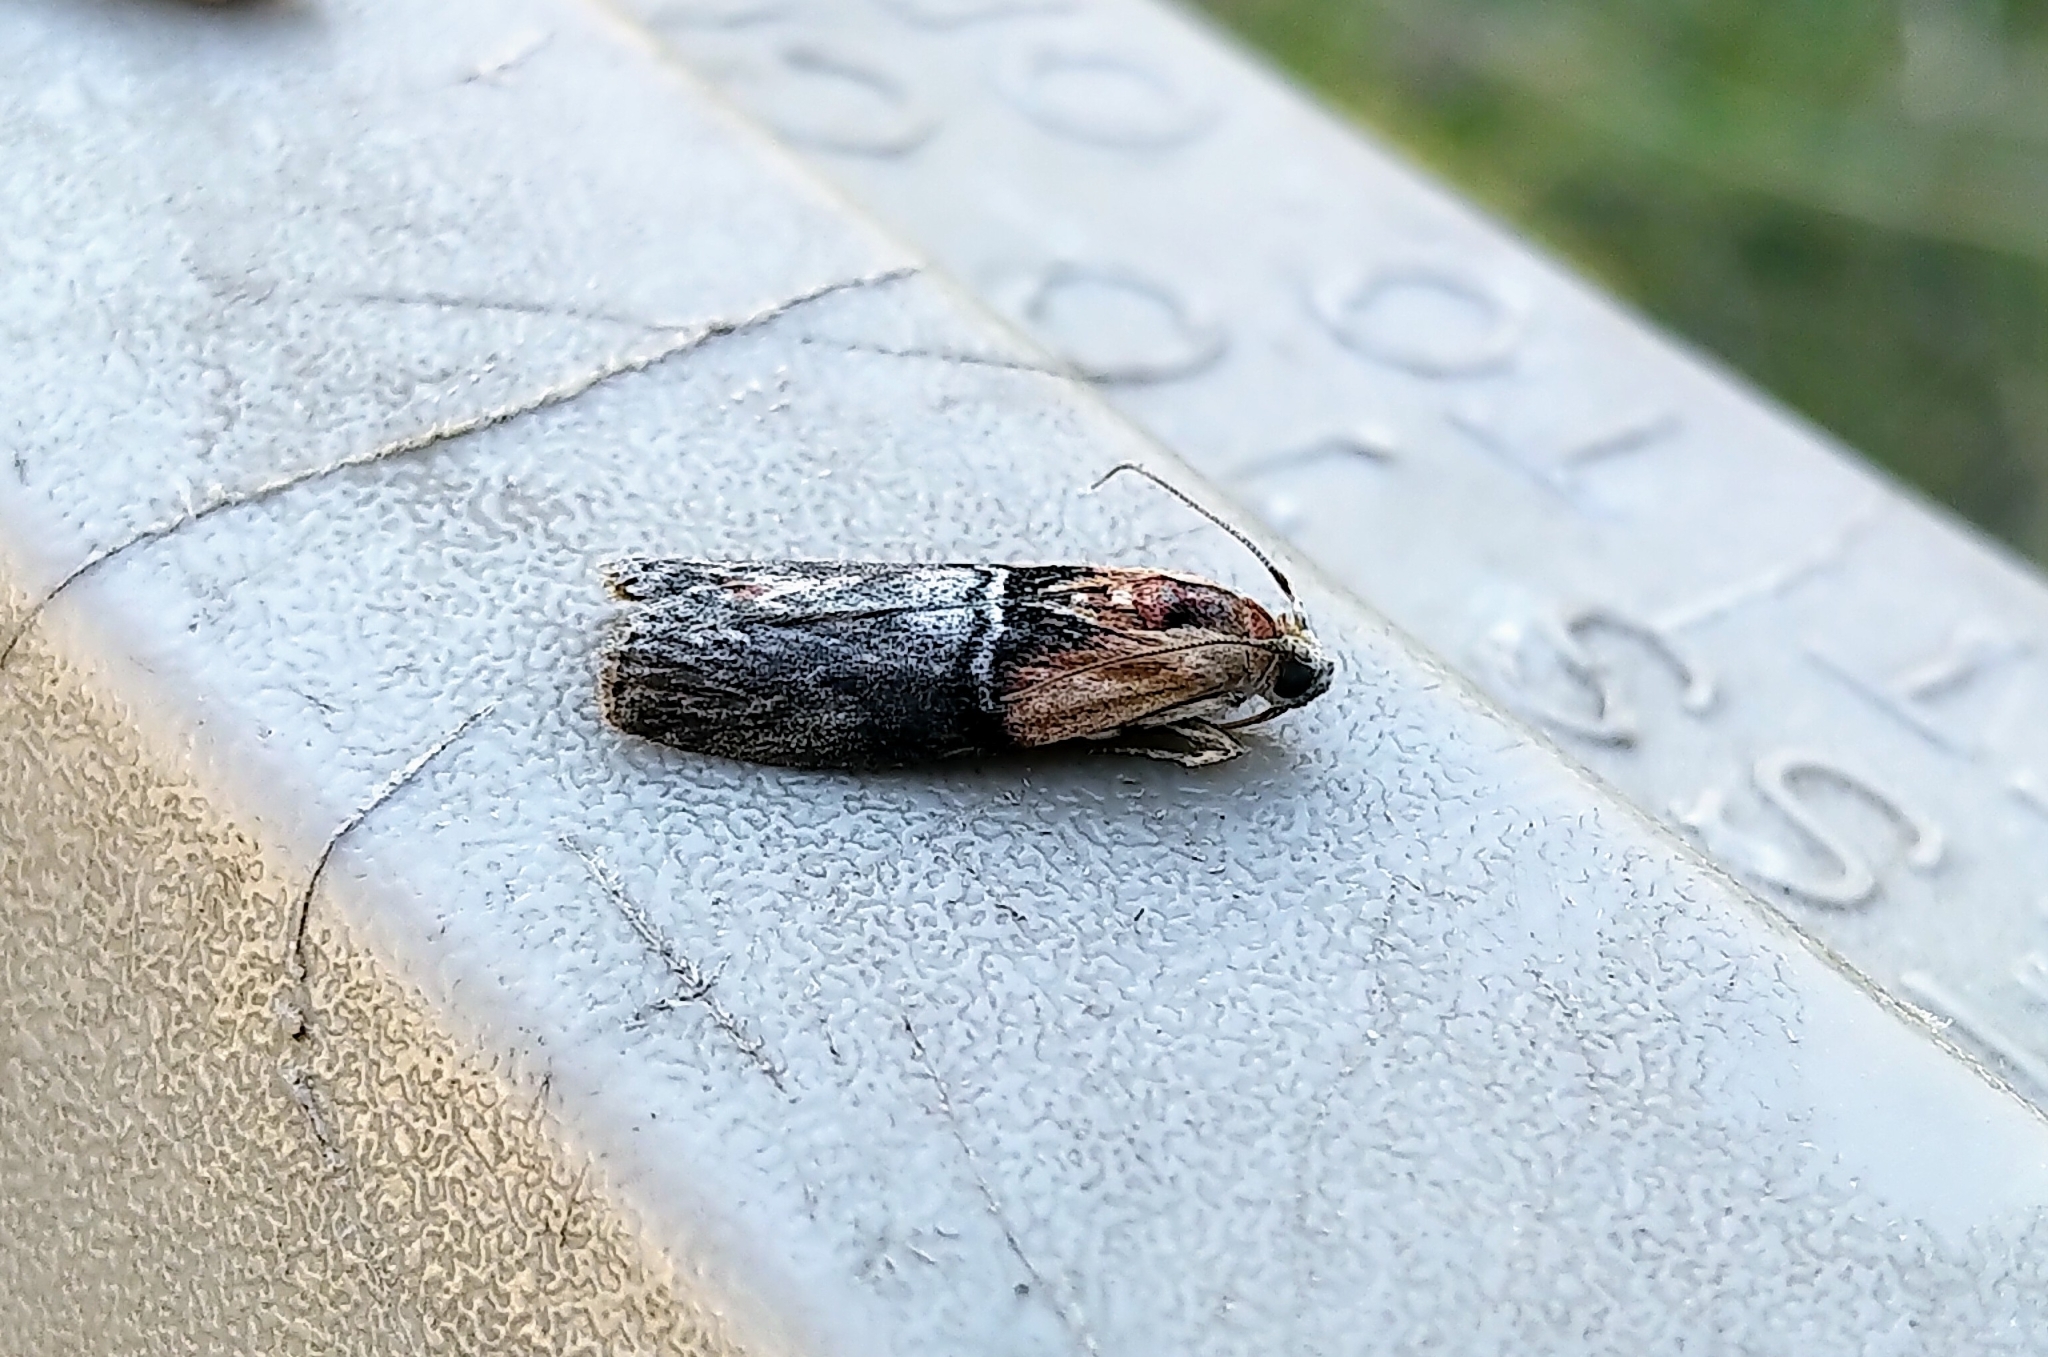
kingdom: Animalia
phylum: Arthropoda
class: Insecta
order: Lepidoptera
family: Pyralidae
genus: Sciota
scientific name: Sciota basilaris
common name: Yellow-shouldered leafroller
